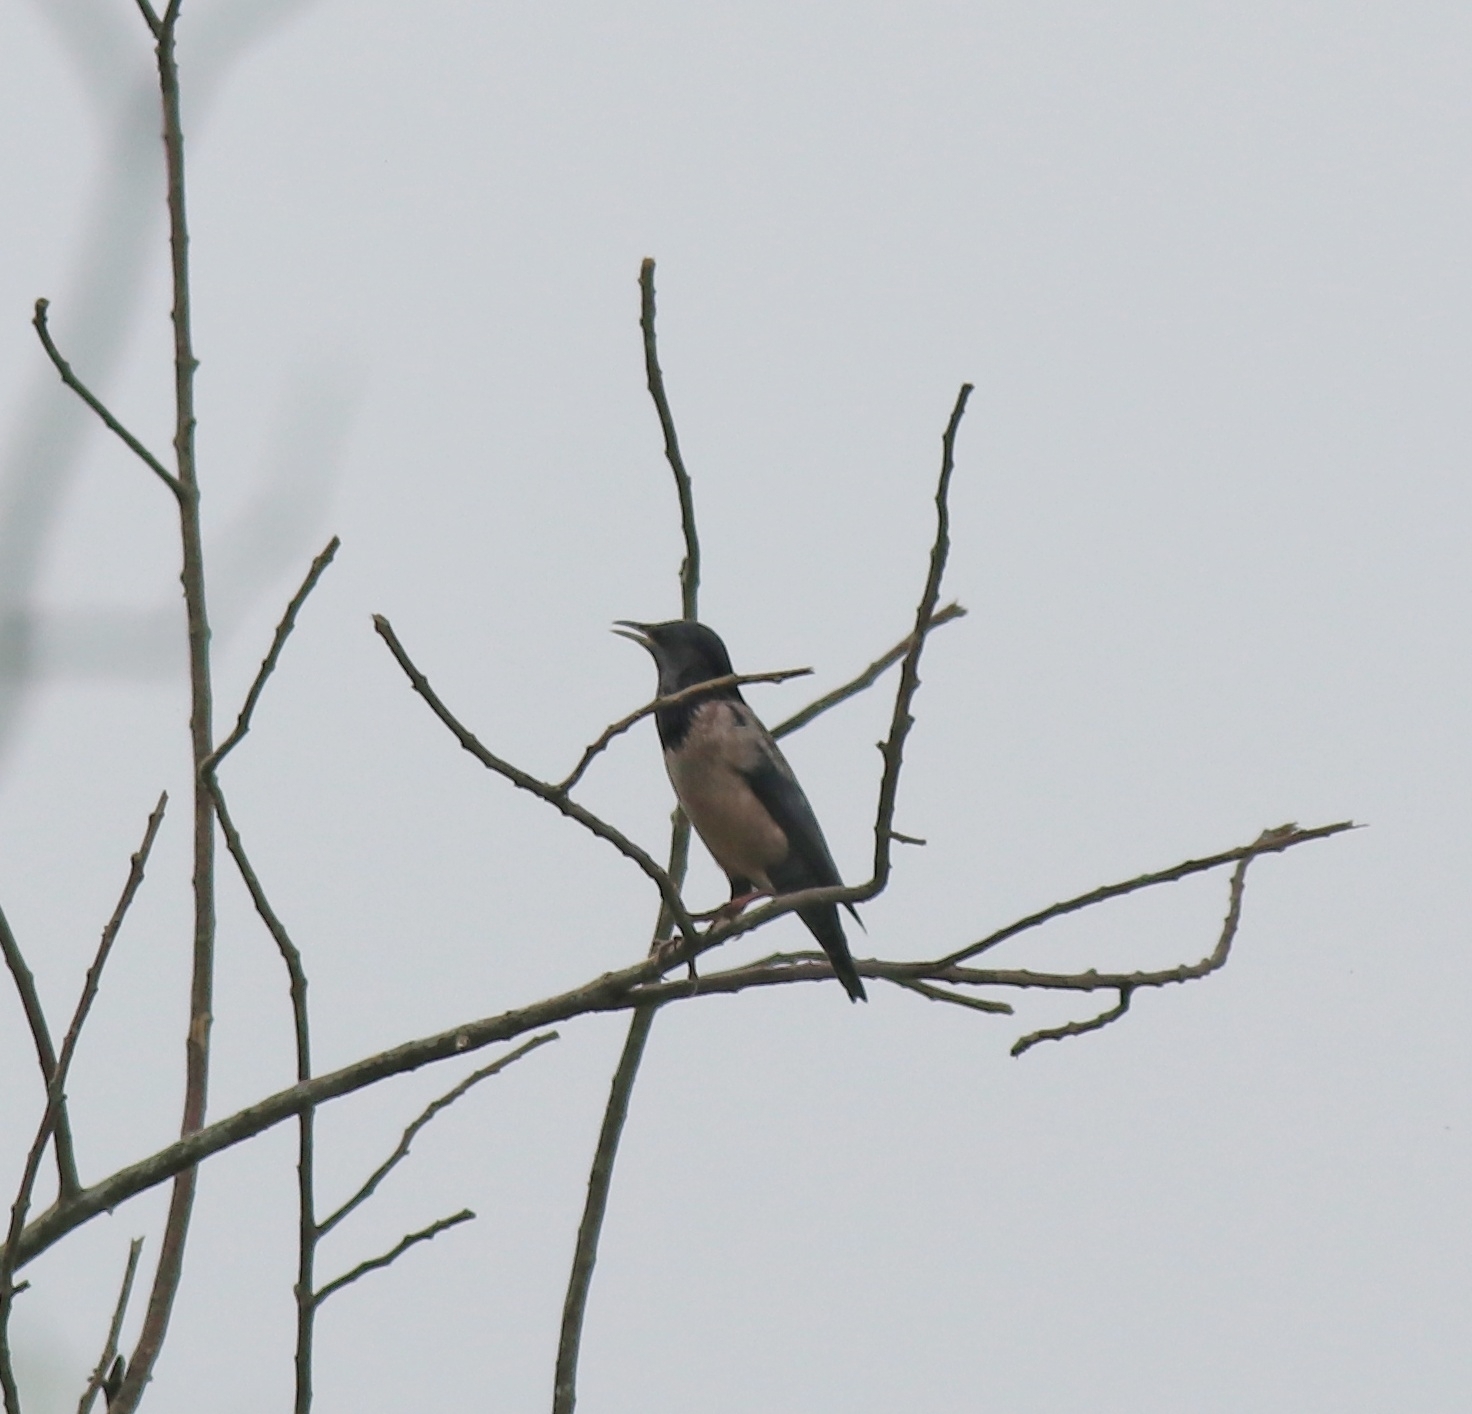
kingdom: Animalia
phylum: Chordata
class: Aves
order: Passeriformes
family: Sturnidae
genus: Pastor
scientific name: Pastor roseus
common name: Rosy starling
